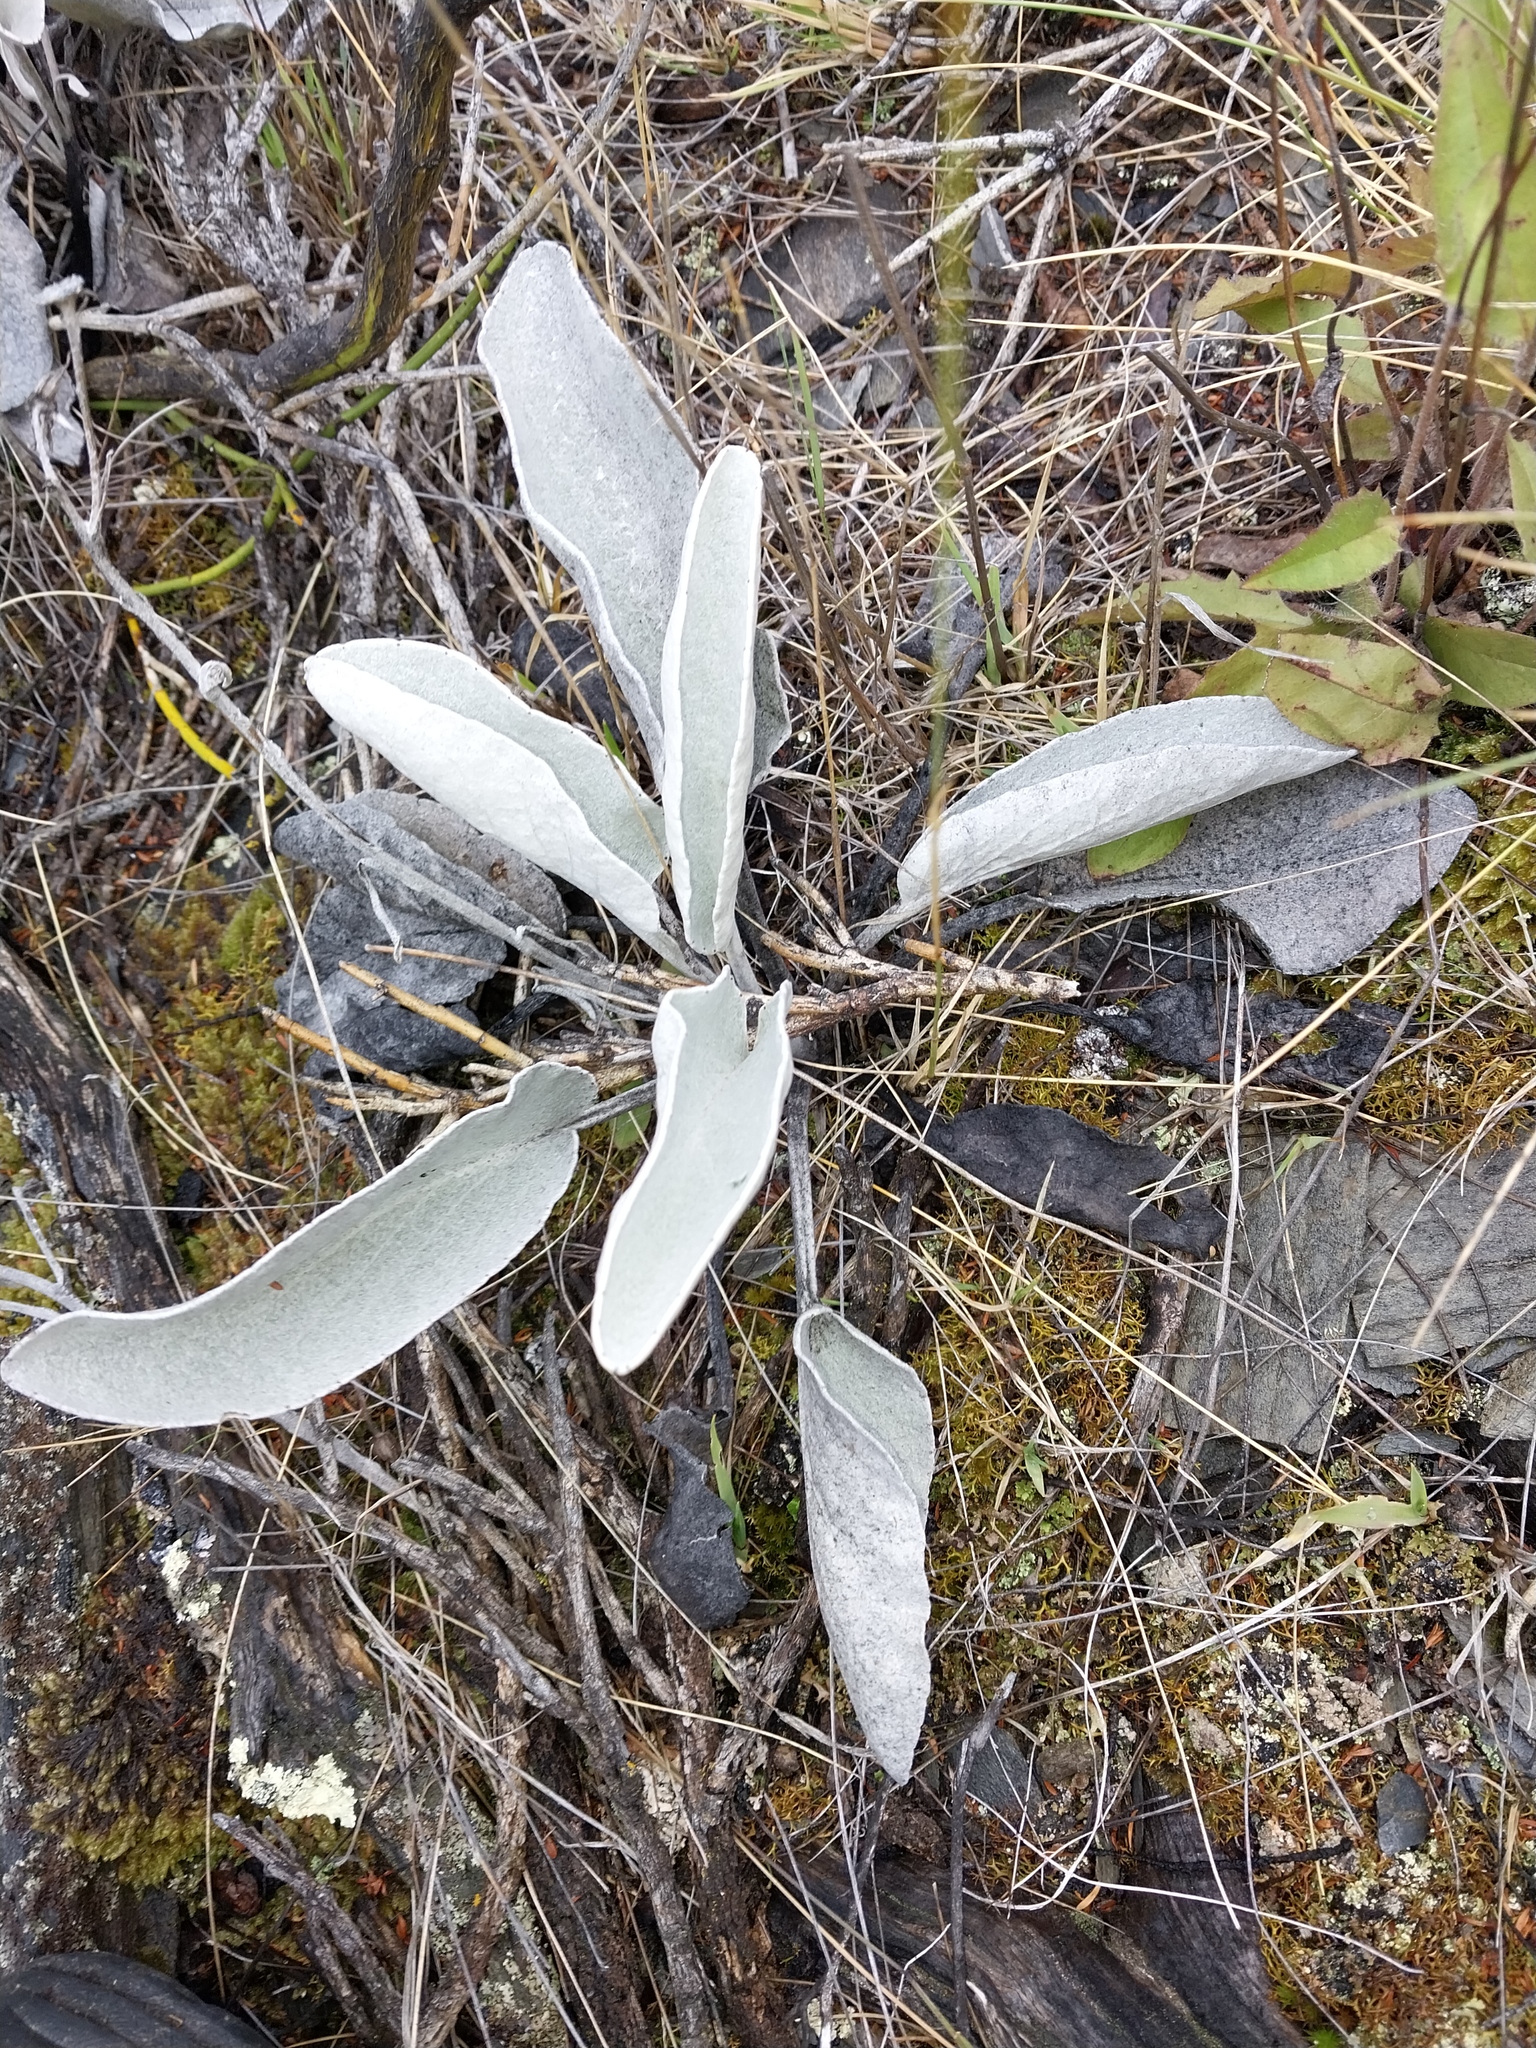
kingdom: Plantae
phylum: Tracheophyta
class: Magnoliopsida
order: Asterales
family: Asteraceae
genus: Brachyglottis
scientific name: Brachyglottis haastii
